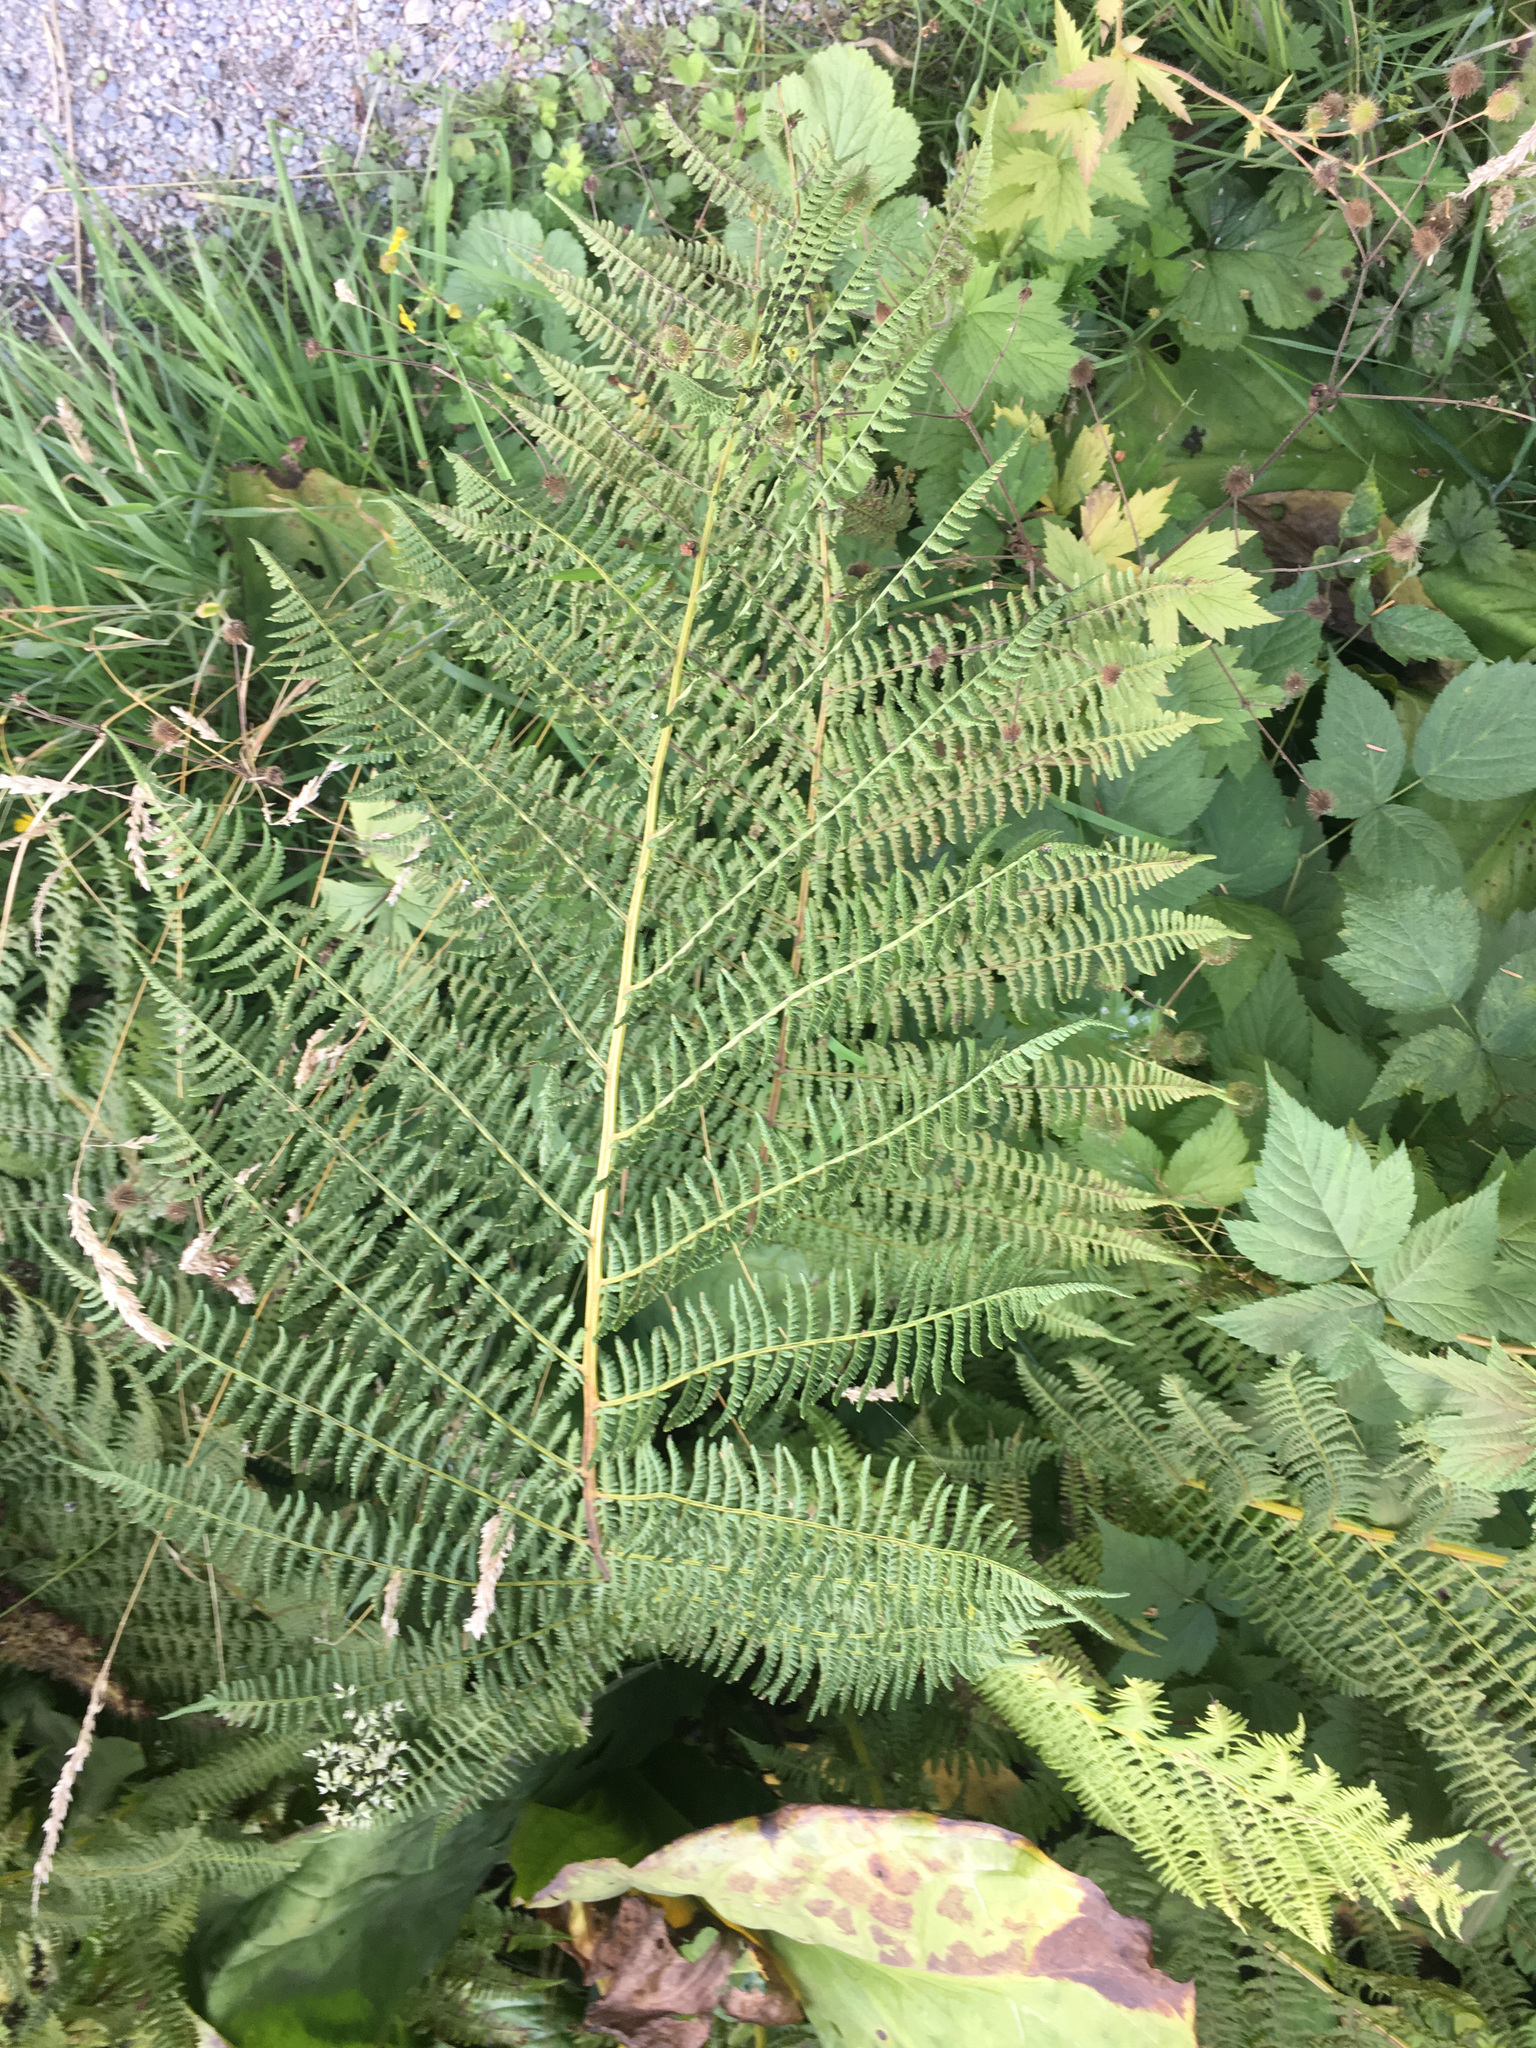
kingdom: Plantae
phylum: Tracheophyta
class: Polypodiopsida
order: Polypodiales
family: Athyriaceae
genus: Athyrium
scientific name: Athyrium filix-femina
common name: Lady fern
